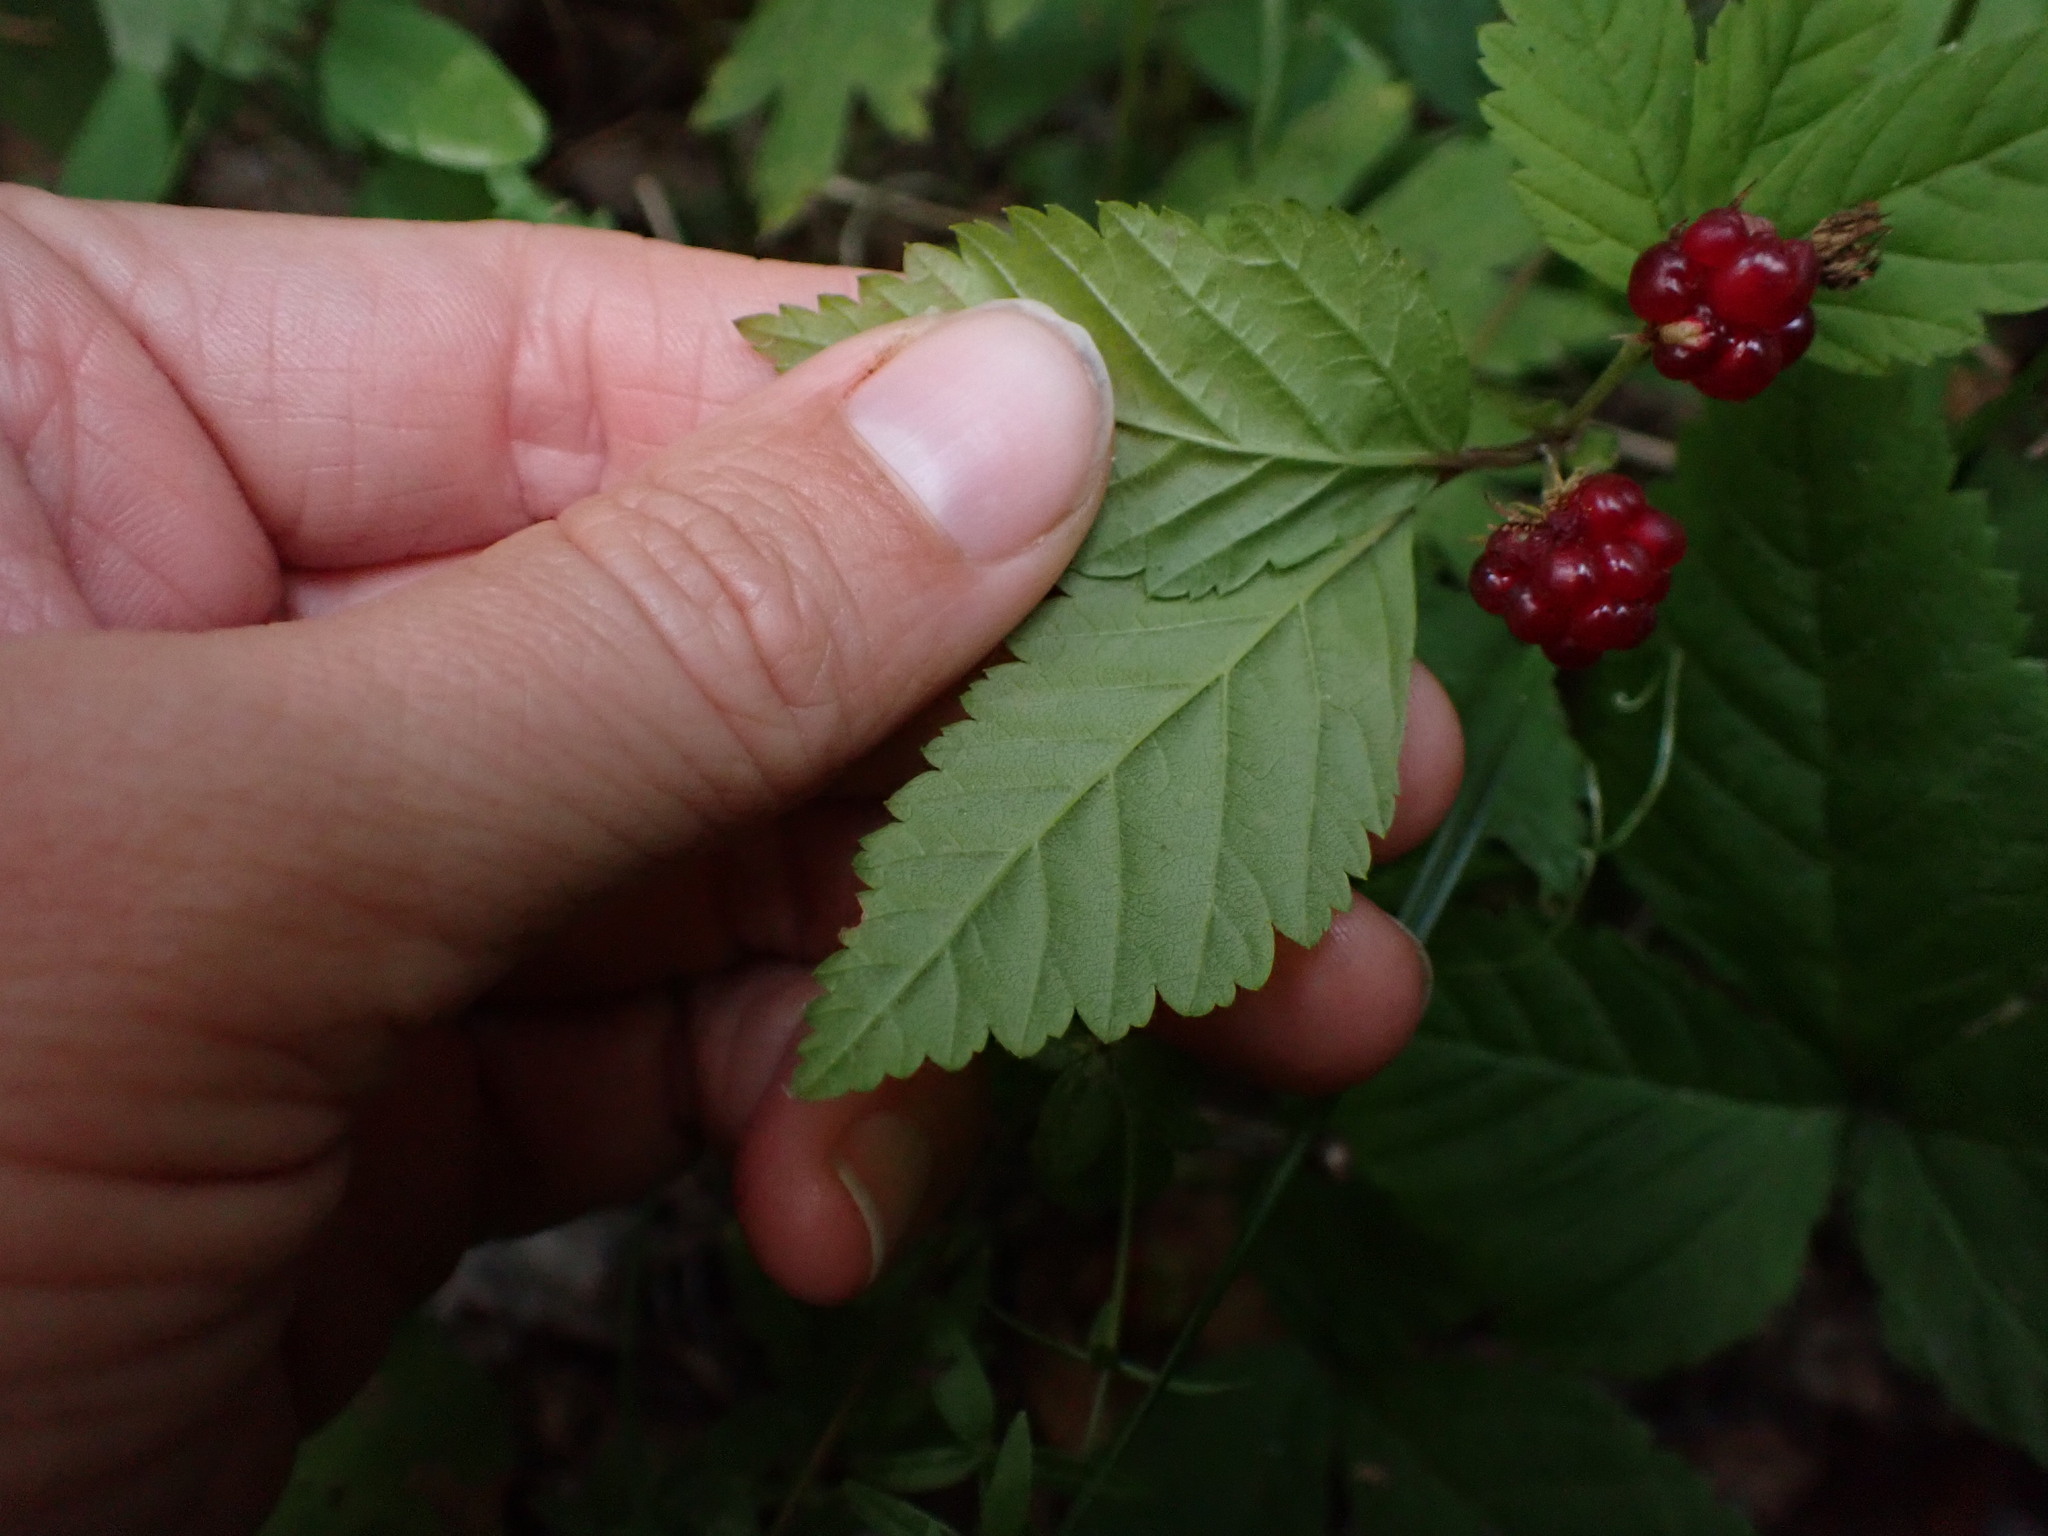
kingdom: Plantae
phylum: Tracheophyta
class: Magnoliopsida
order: Rosales
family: Rosaceae
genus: Rubus
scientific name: Rubus pubescens
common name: Dwarf raspberry
